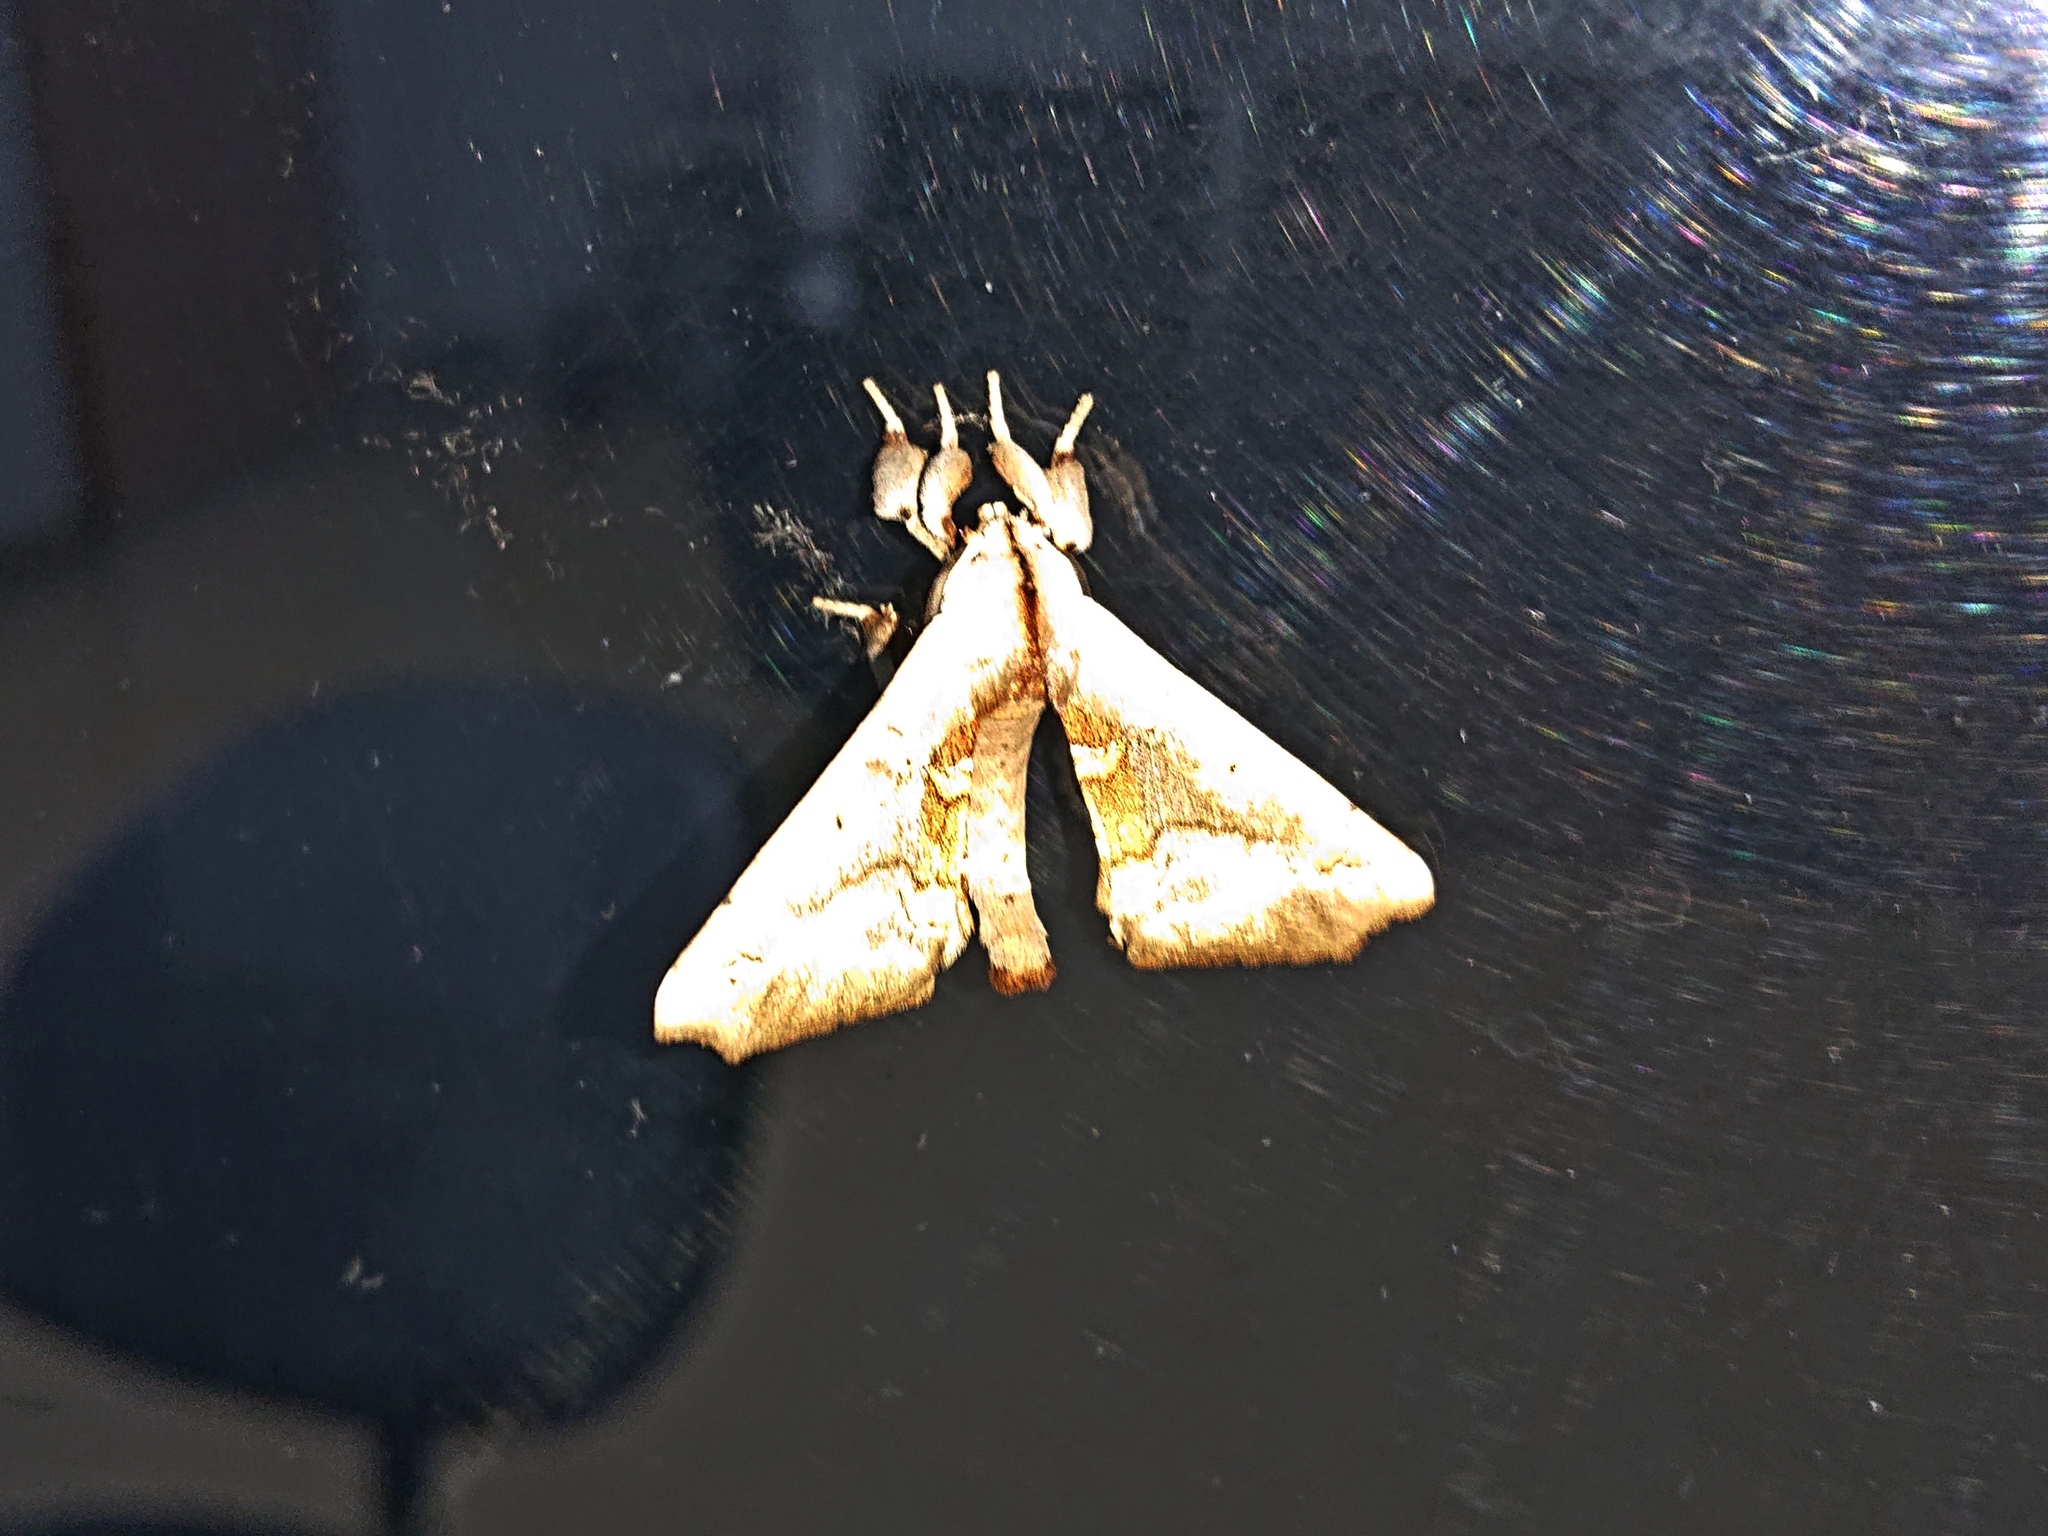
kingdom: Animalia
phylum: Arthropoda
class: Insecta
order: Lepidoptera
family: Apatelodidae
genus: Hygrochroa
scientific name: Hygrochroa Apatelodes dorrace
